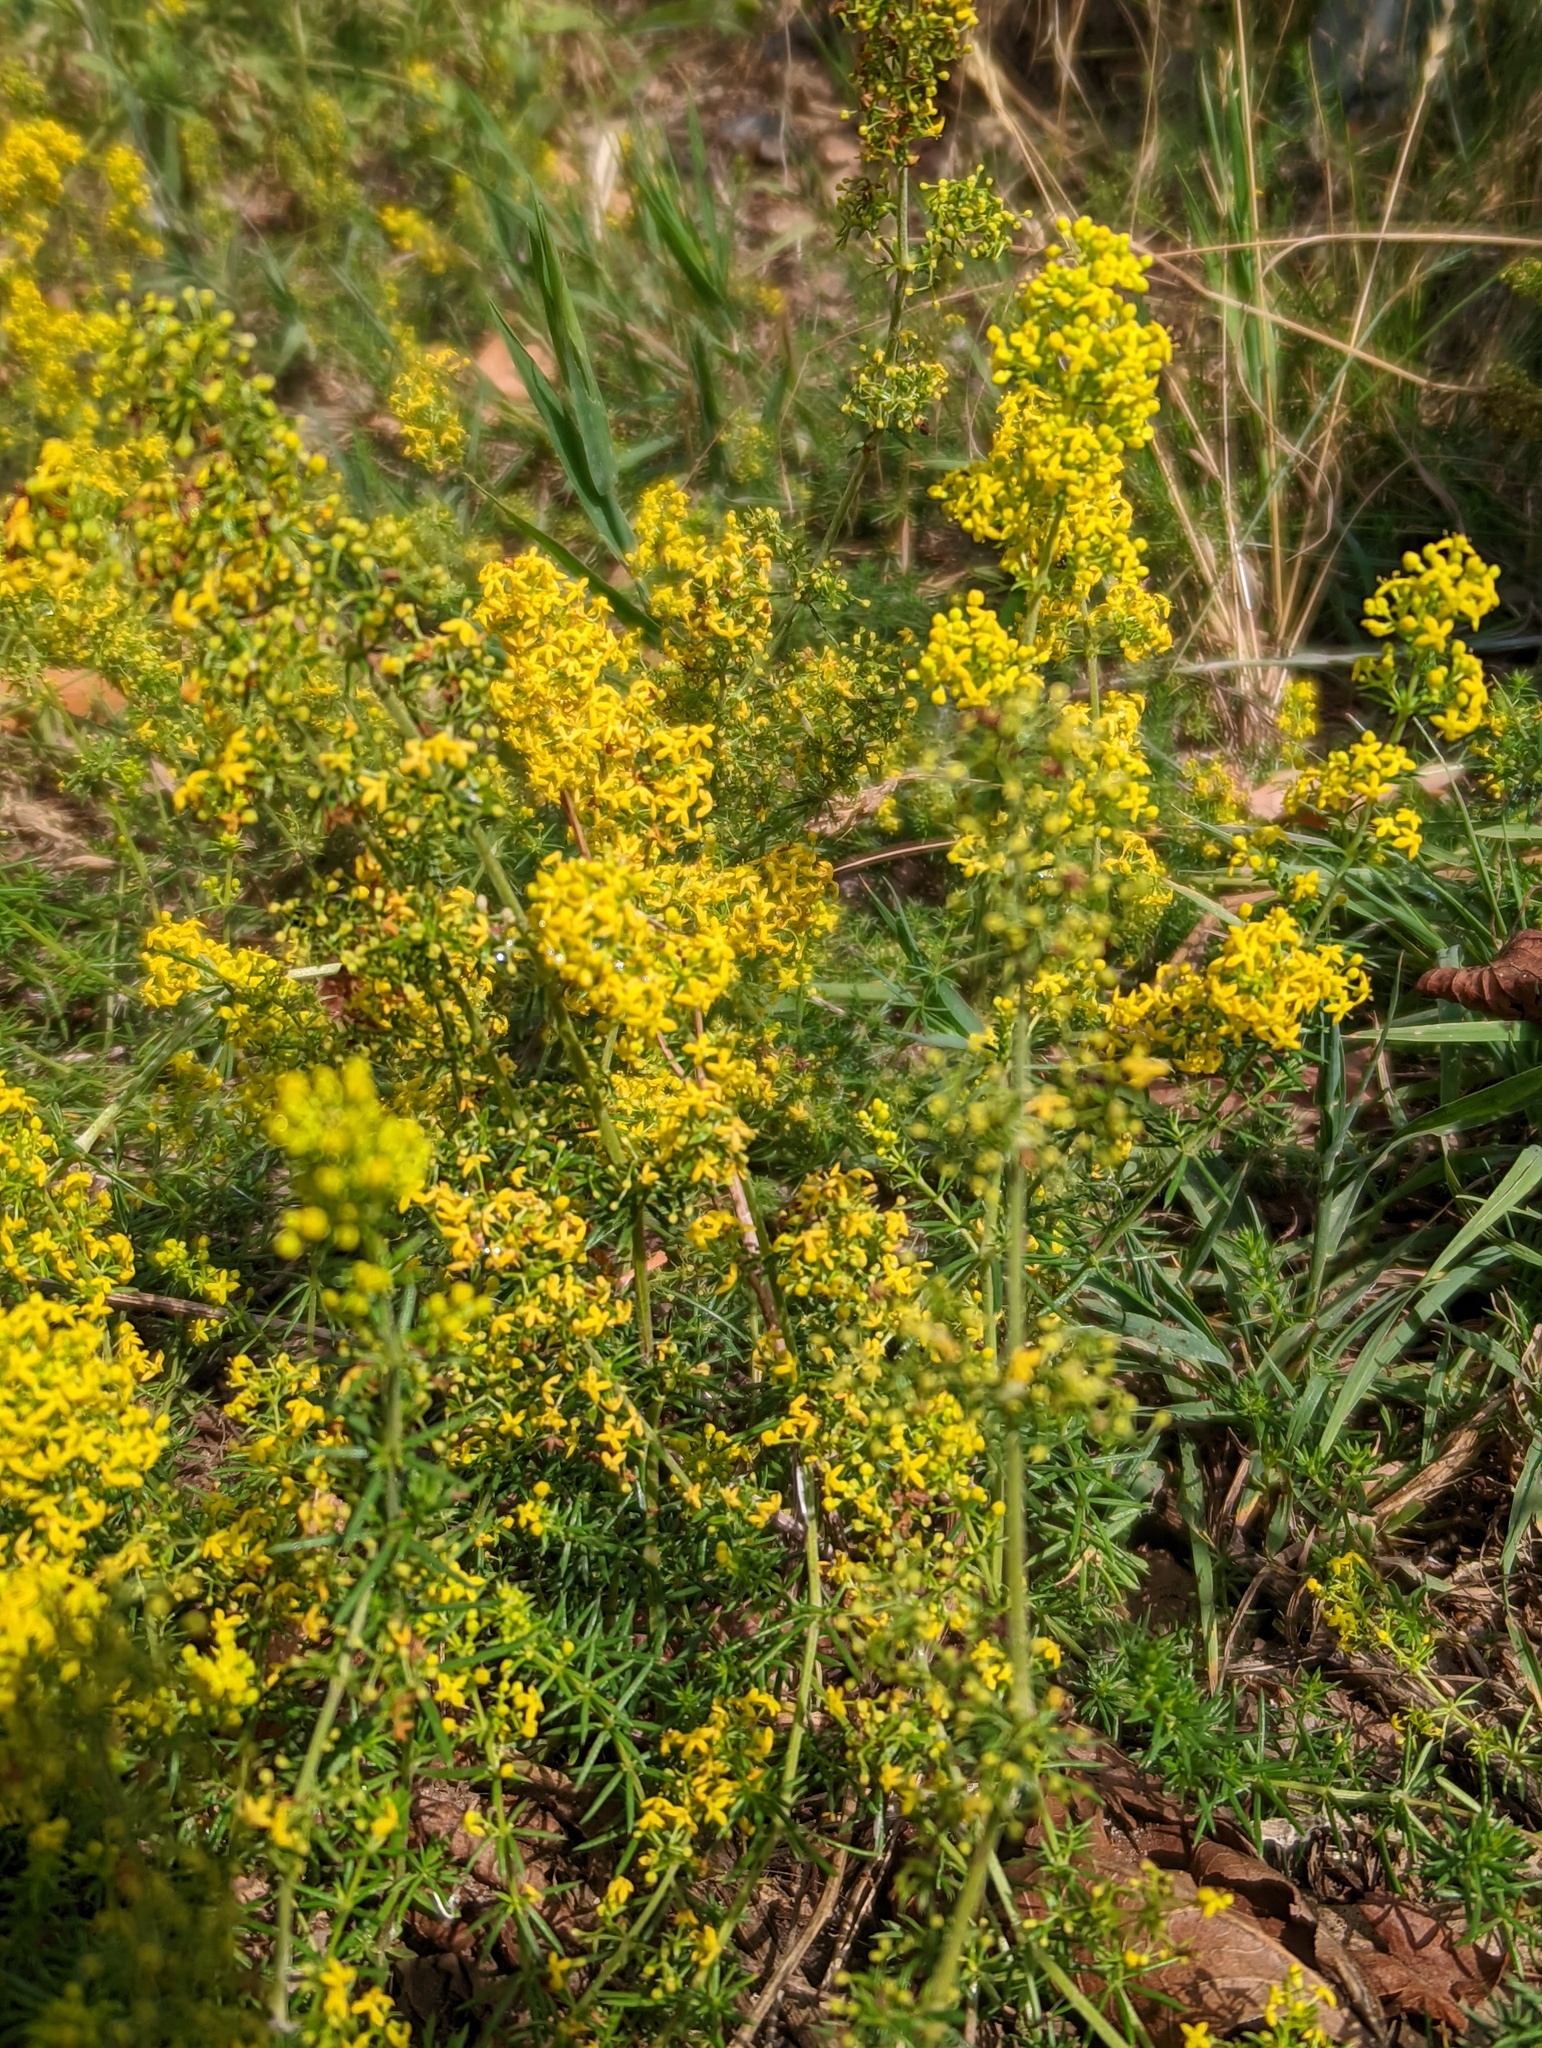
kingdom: Plantae
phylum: Tracheophyta
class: Magnoliopsida
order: Gentianales
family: Rubiaceae
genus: Galium
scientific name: Galium verum
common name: Lady's bedstraw
